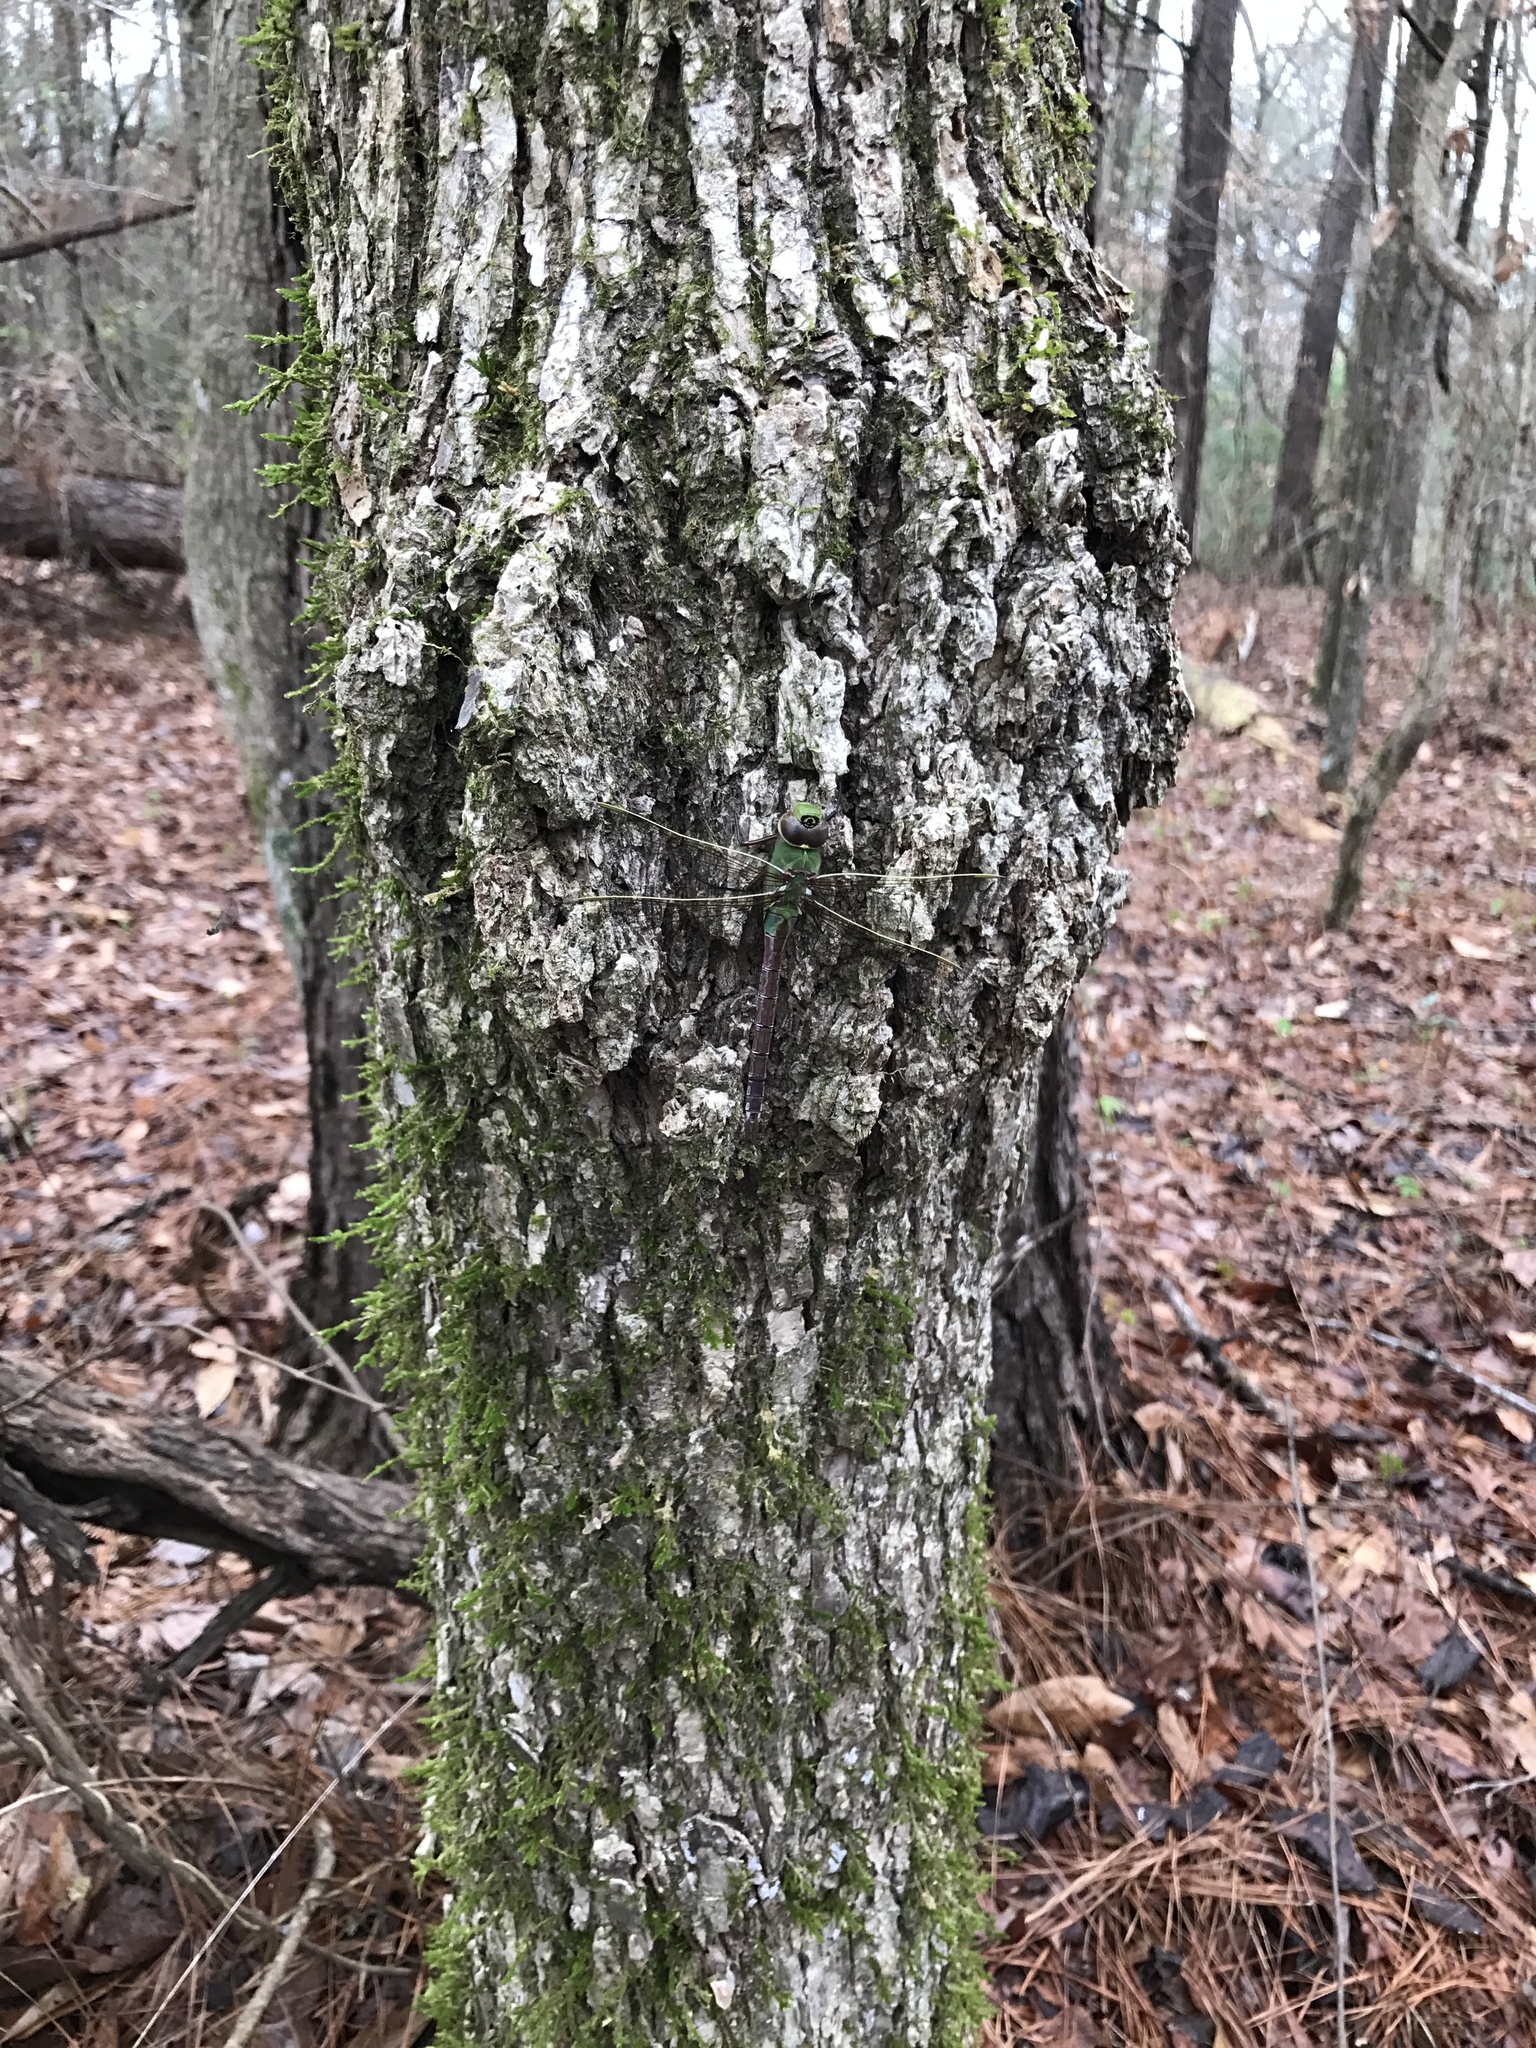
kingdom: Animalia
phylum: Arthropoda
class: Insecta
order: Odonata
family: Aeshnidae
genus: Anax
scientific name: Anax junius
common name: Common green darner
